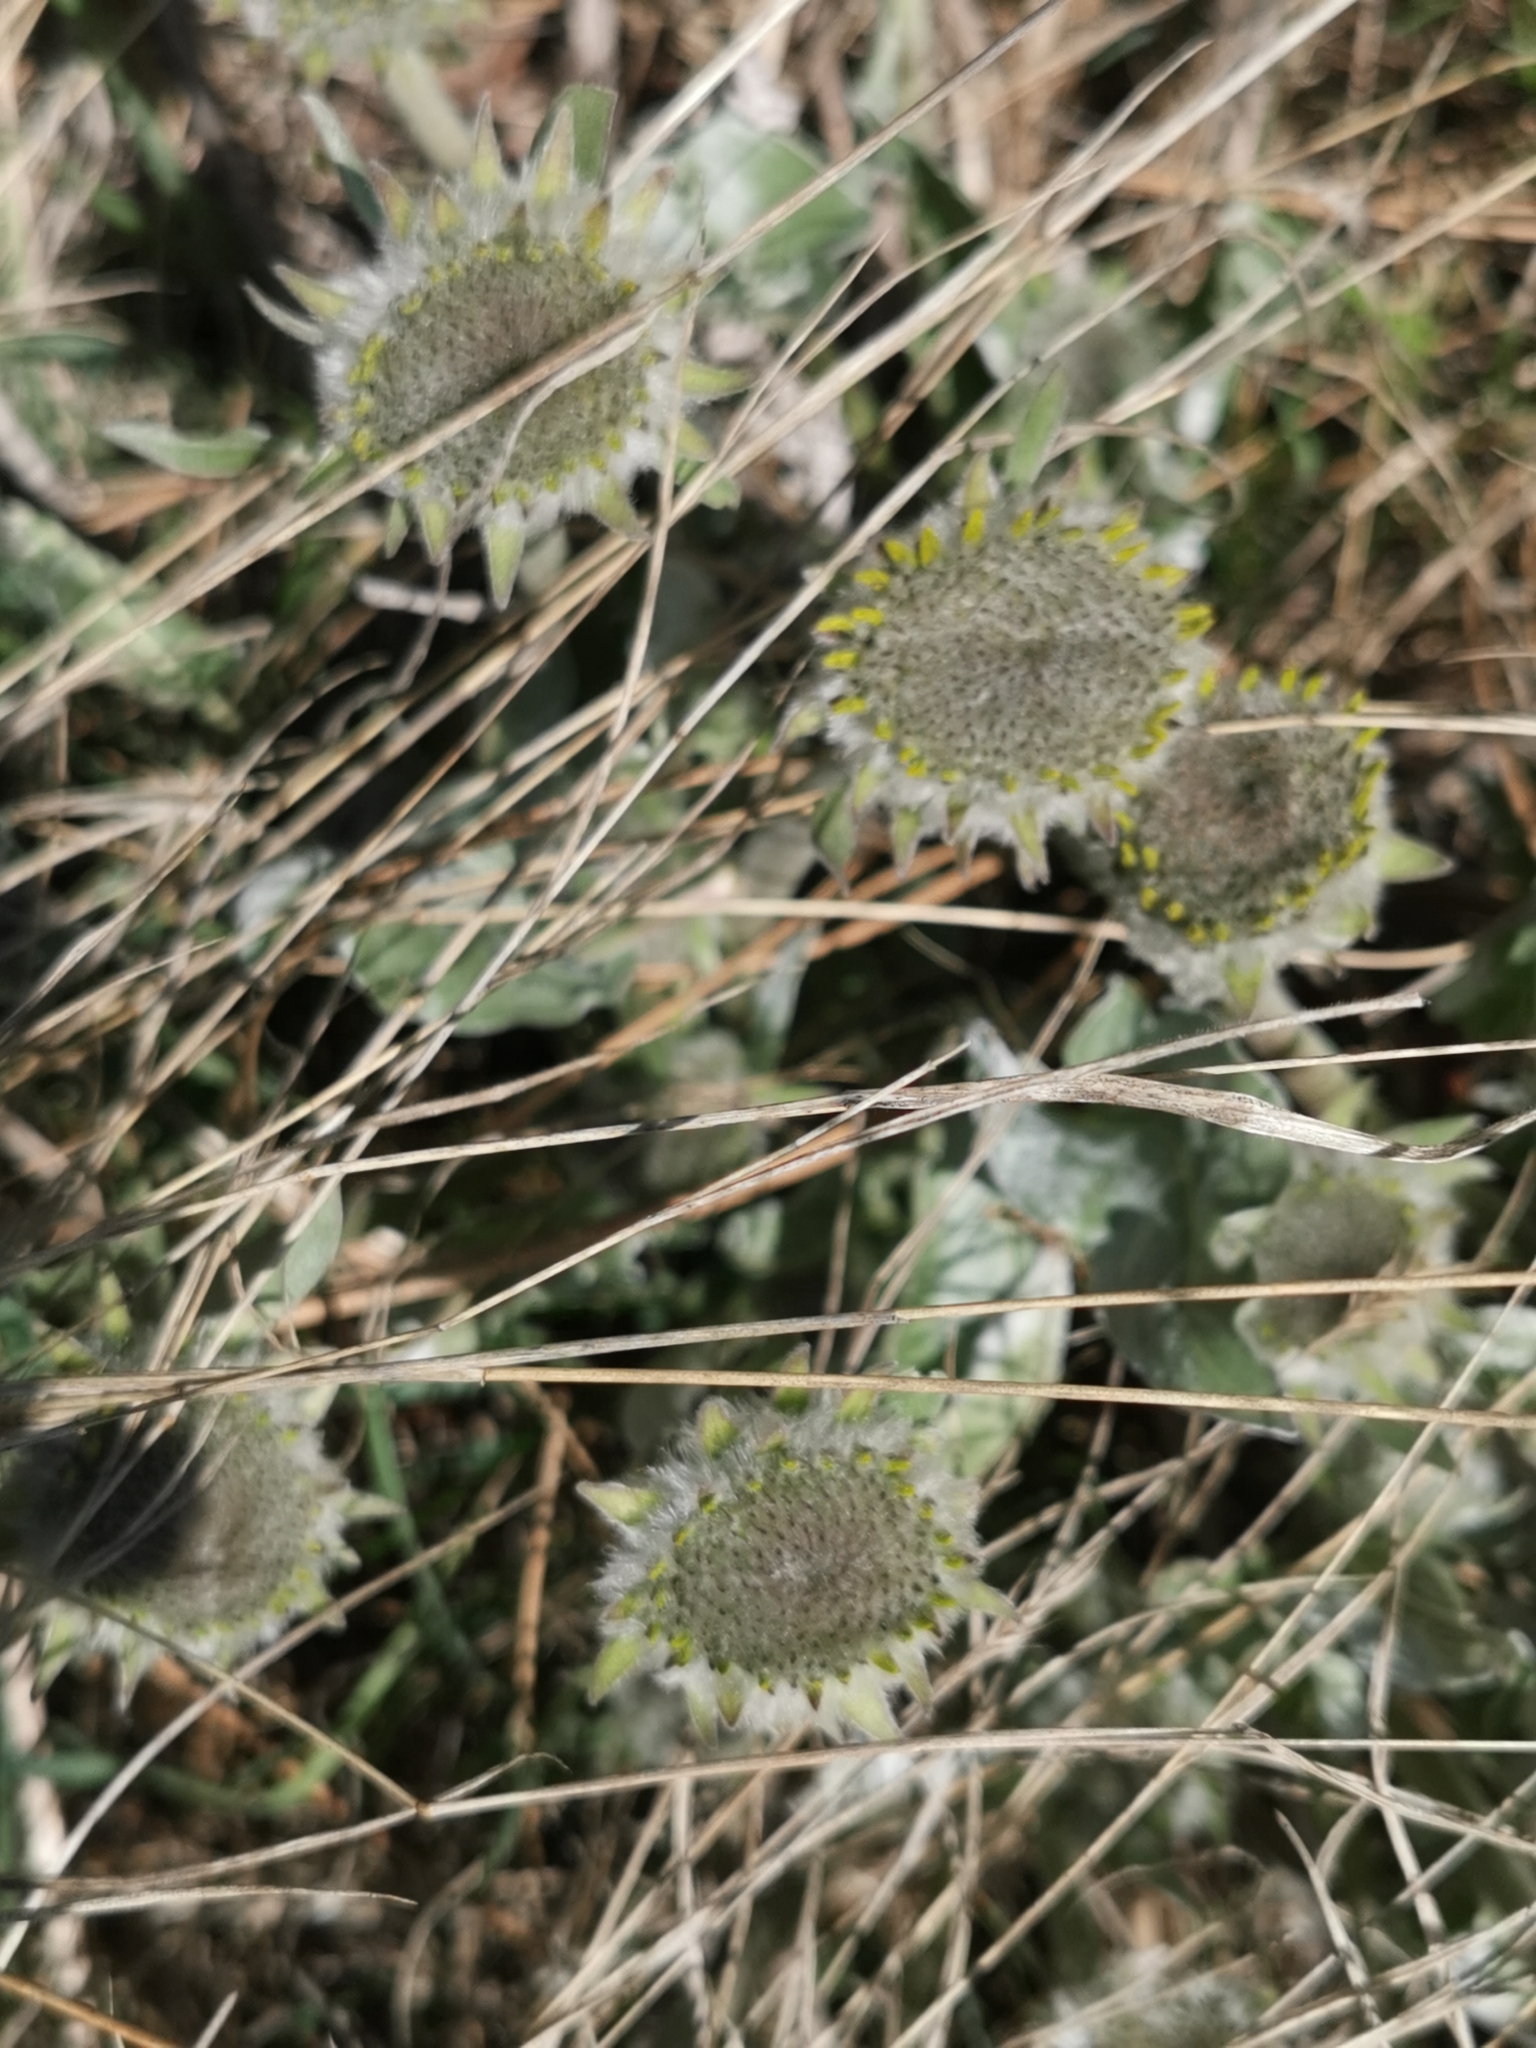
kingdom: Plantae
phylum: Tracheophyta
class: Magnoliopsida
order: Asterales
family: Asteraceae
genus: Wyethia
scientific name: Wyethia sagittata
